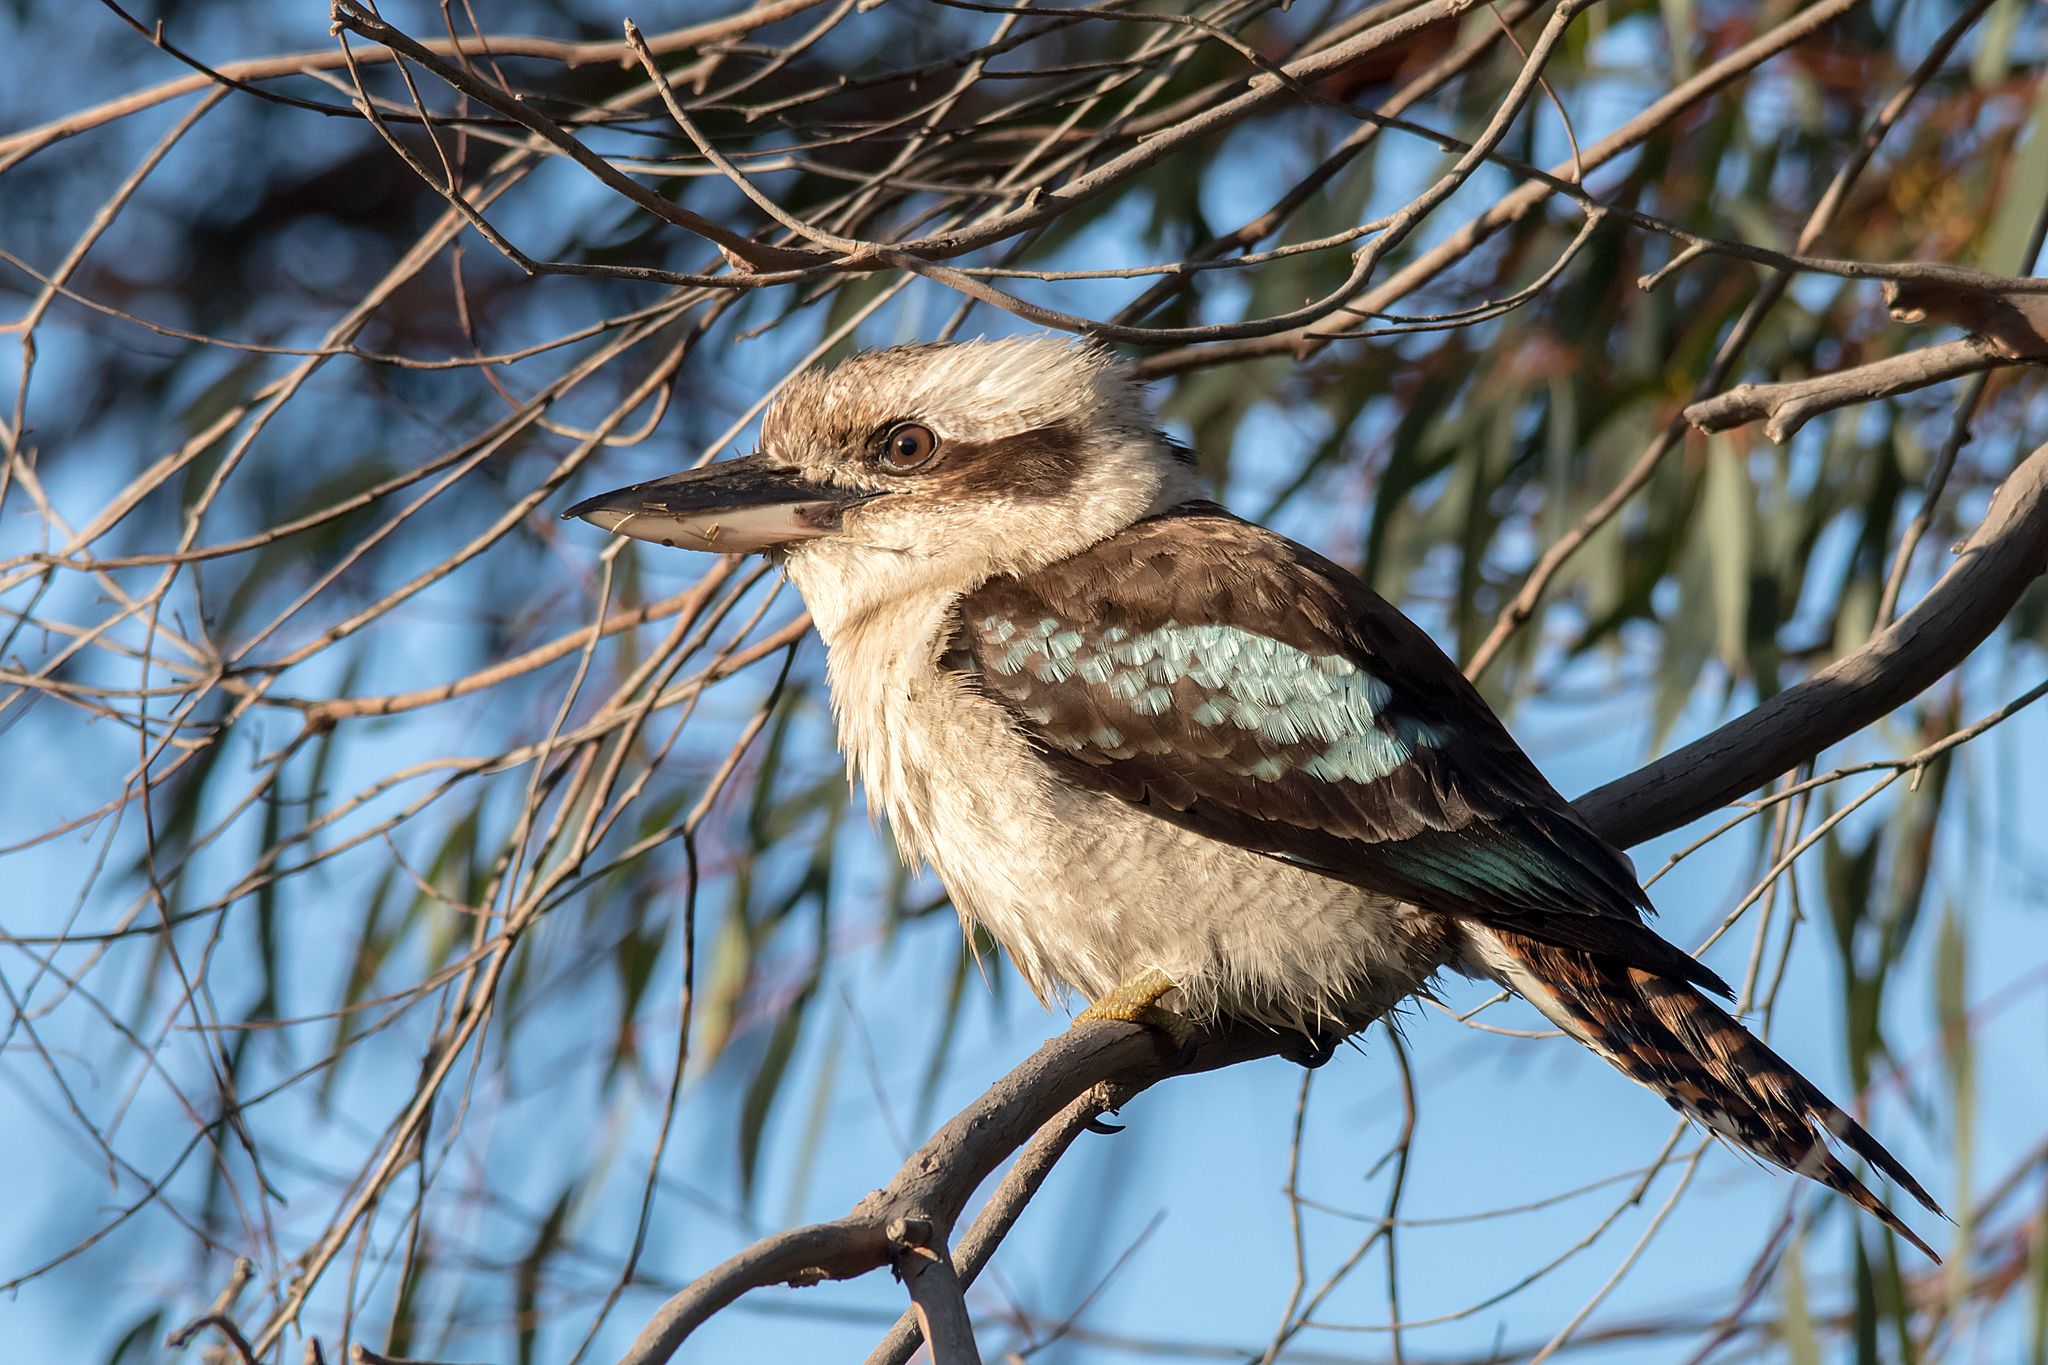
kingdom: Animalia
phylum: Chordata
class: Aves
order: Coraciiformes
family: Alcedinidae
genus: Dacelo
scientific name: Dacelo novaeguineae
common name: Laughing kookaburra
